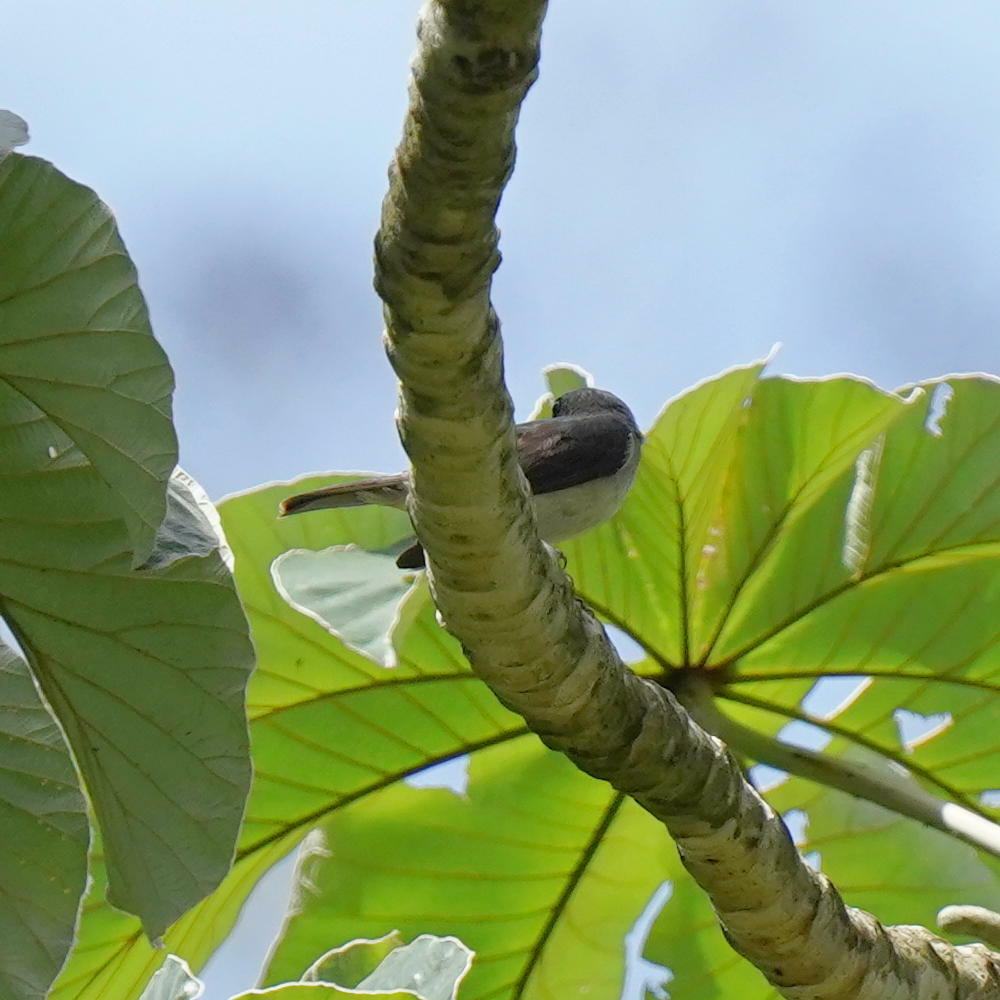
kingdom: Animalia
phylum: Chordata
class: Aves
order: Passeriformes
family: Thraupidae
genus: Tangara
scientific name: Tangara inornata
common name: Plain-colored tanager
